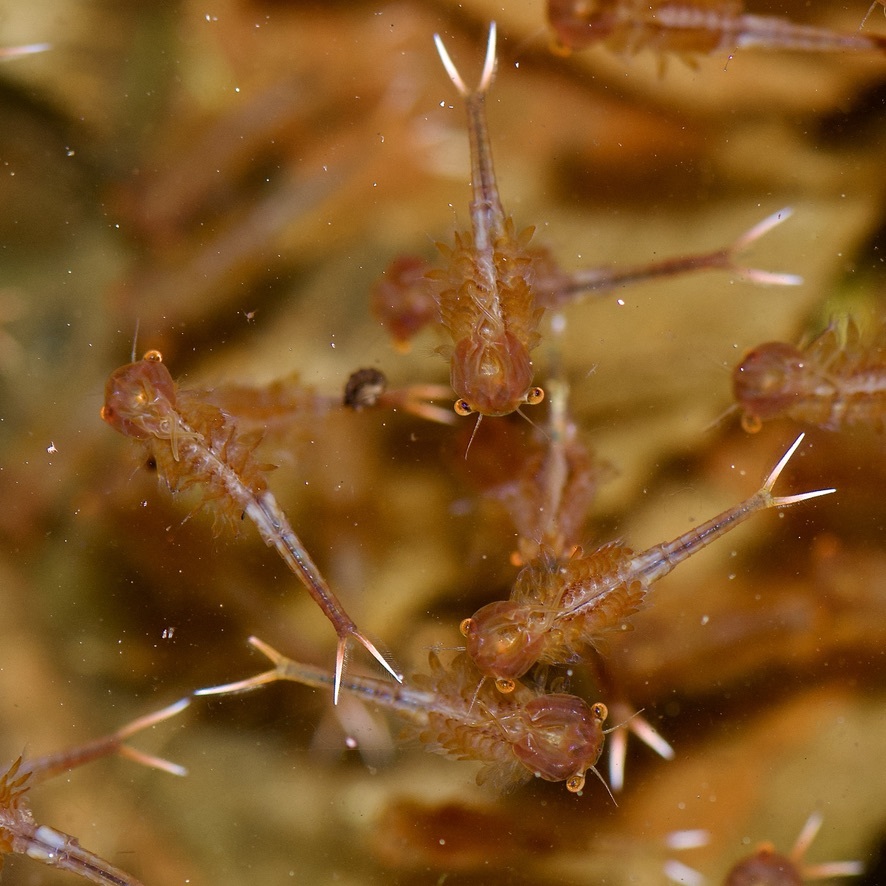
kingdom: Animalia
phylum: Arthropoda
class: Branchiopoda
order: Anostraca
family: Chirocephalidae
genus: Eubranchipus
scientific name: Eubranchipus vernalis
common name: Eastern fairy shrimp
